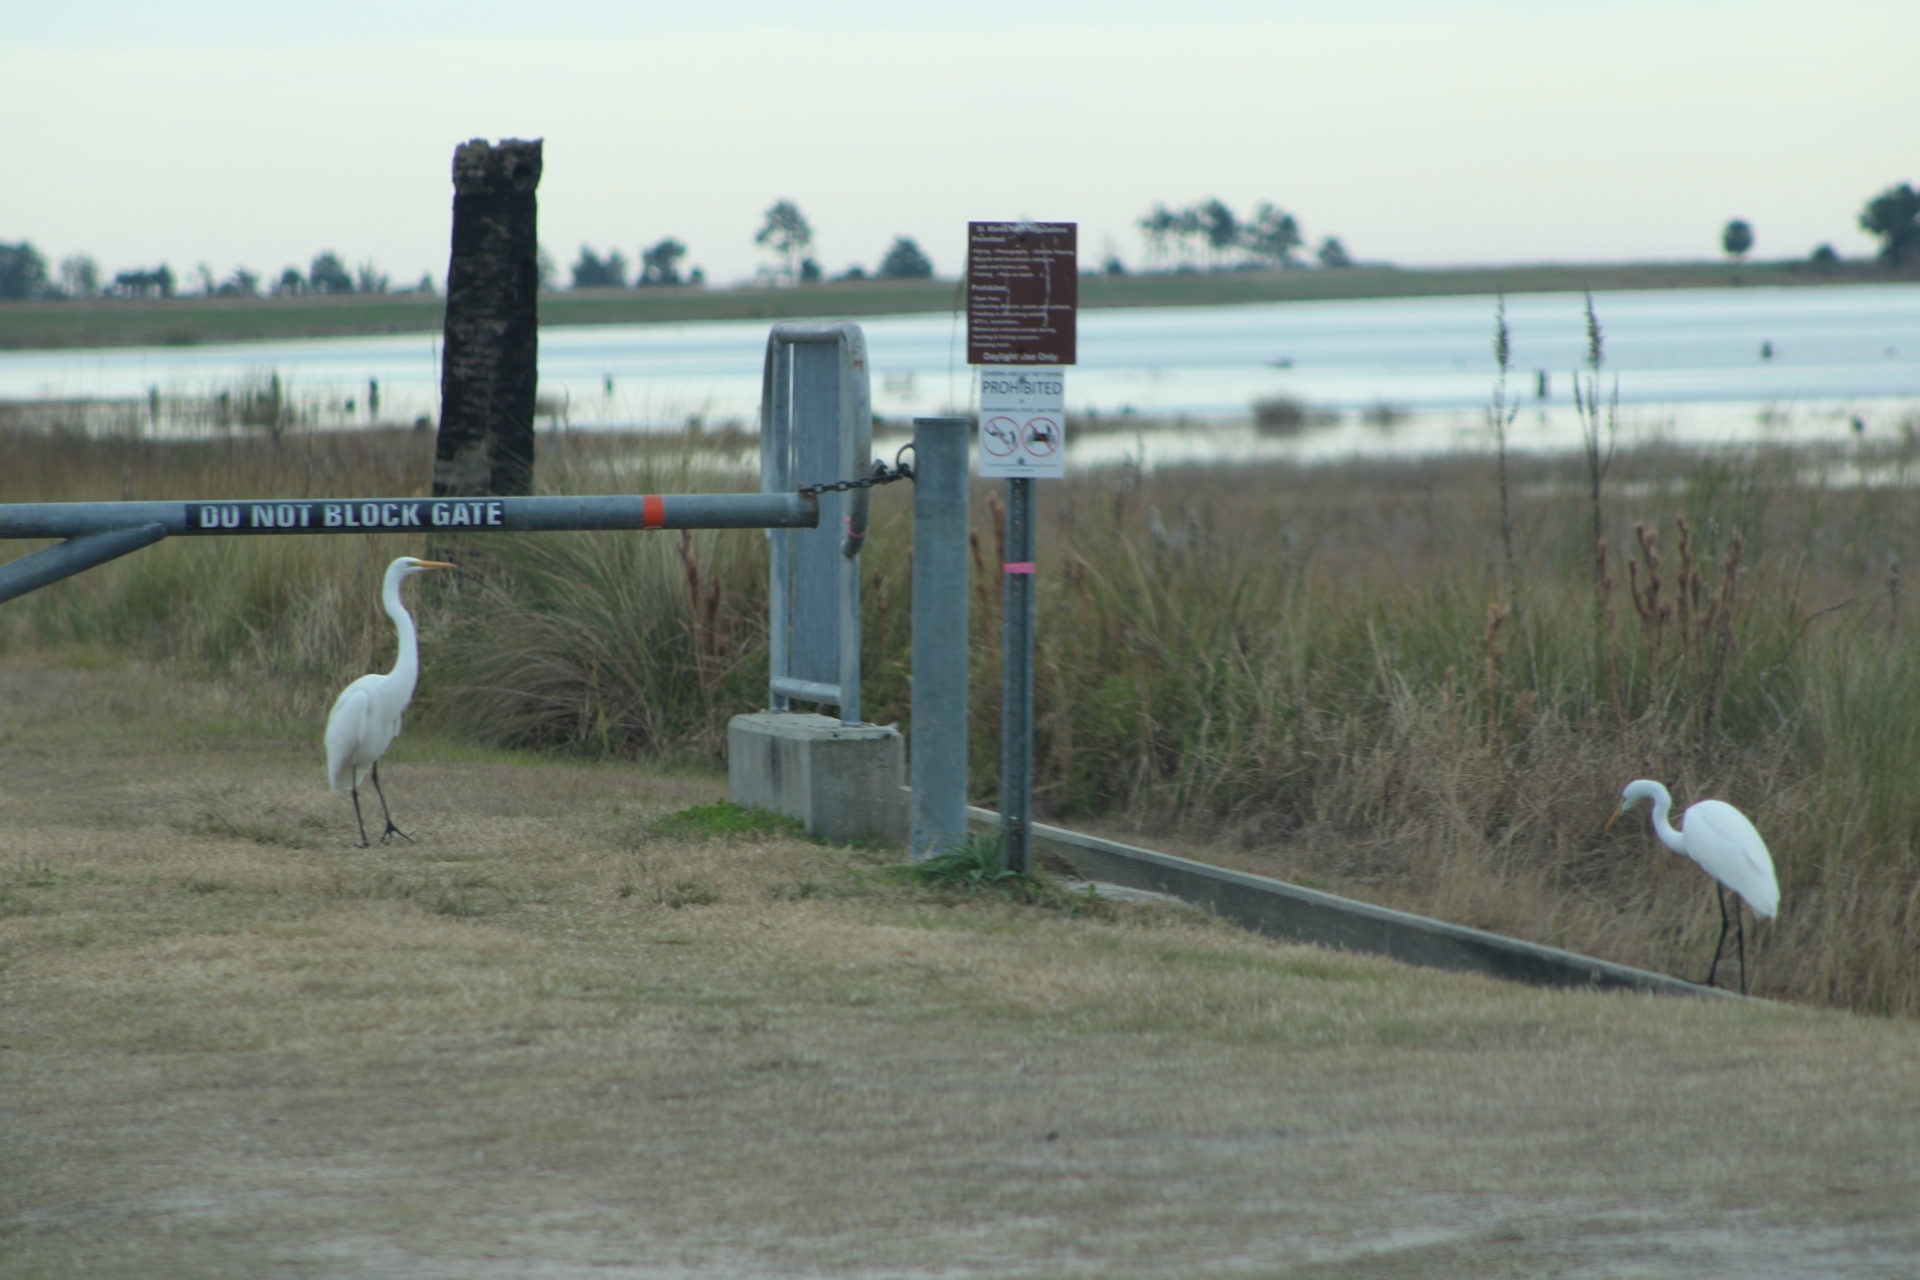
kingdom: Animalia
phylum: Chordata
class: Aves
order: Pelecaniformes
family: Ardeidae
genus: Ardea
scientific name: Ardea alba
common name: Great egret
